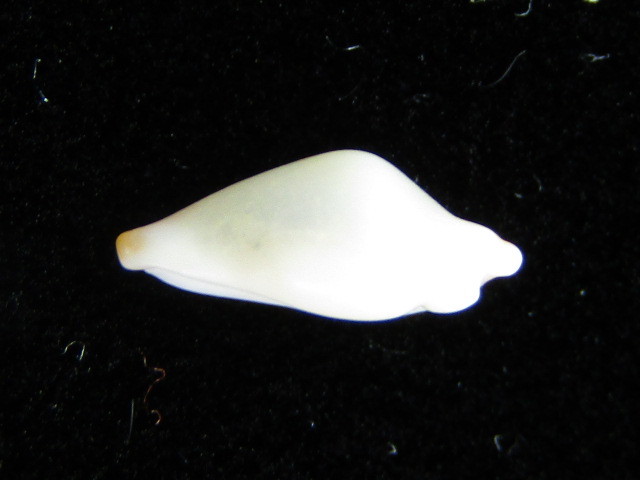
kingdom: Animalia
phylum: Mollusca
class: Gastropoda
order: Littorinimorpha
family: Ovulidae
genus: Cuspivolva
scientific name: Cuspivolva cuspis
